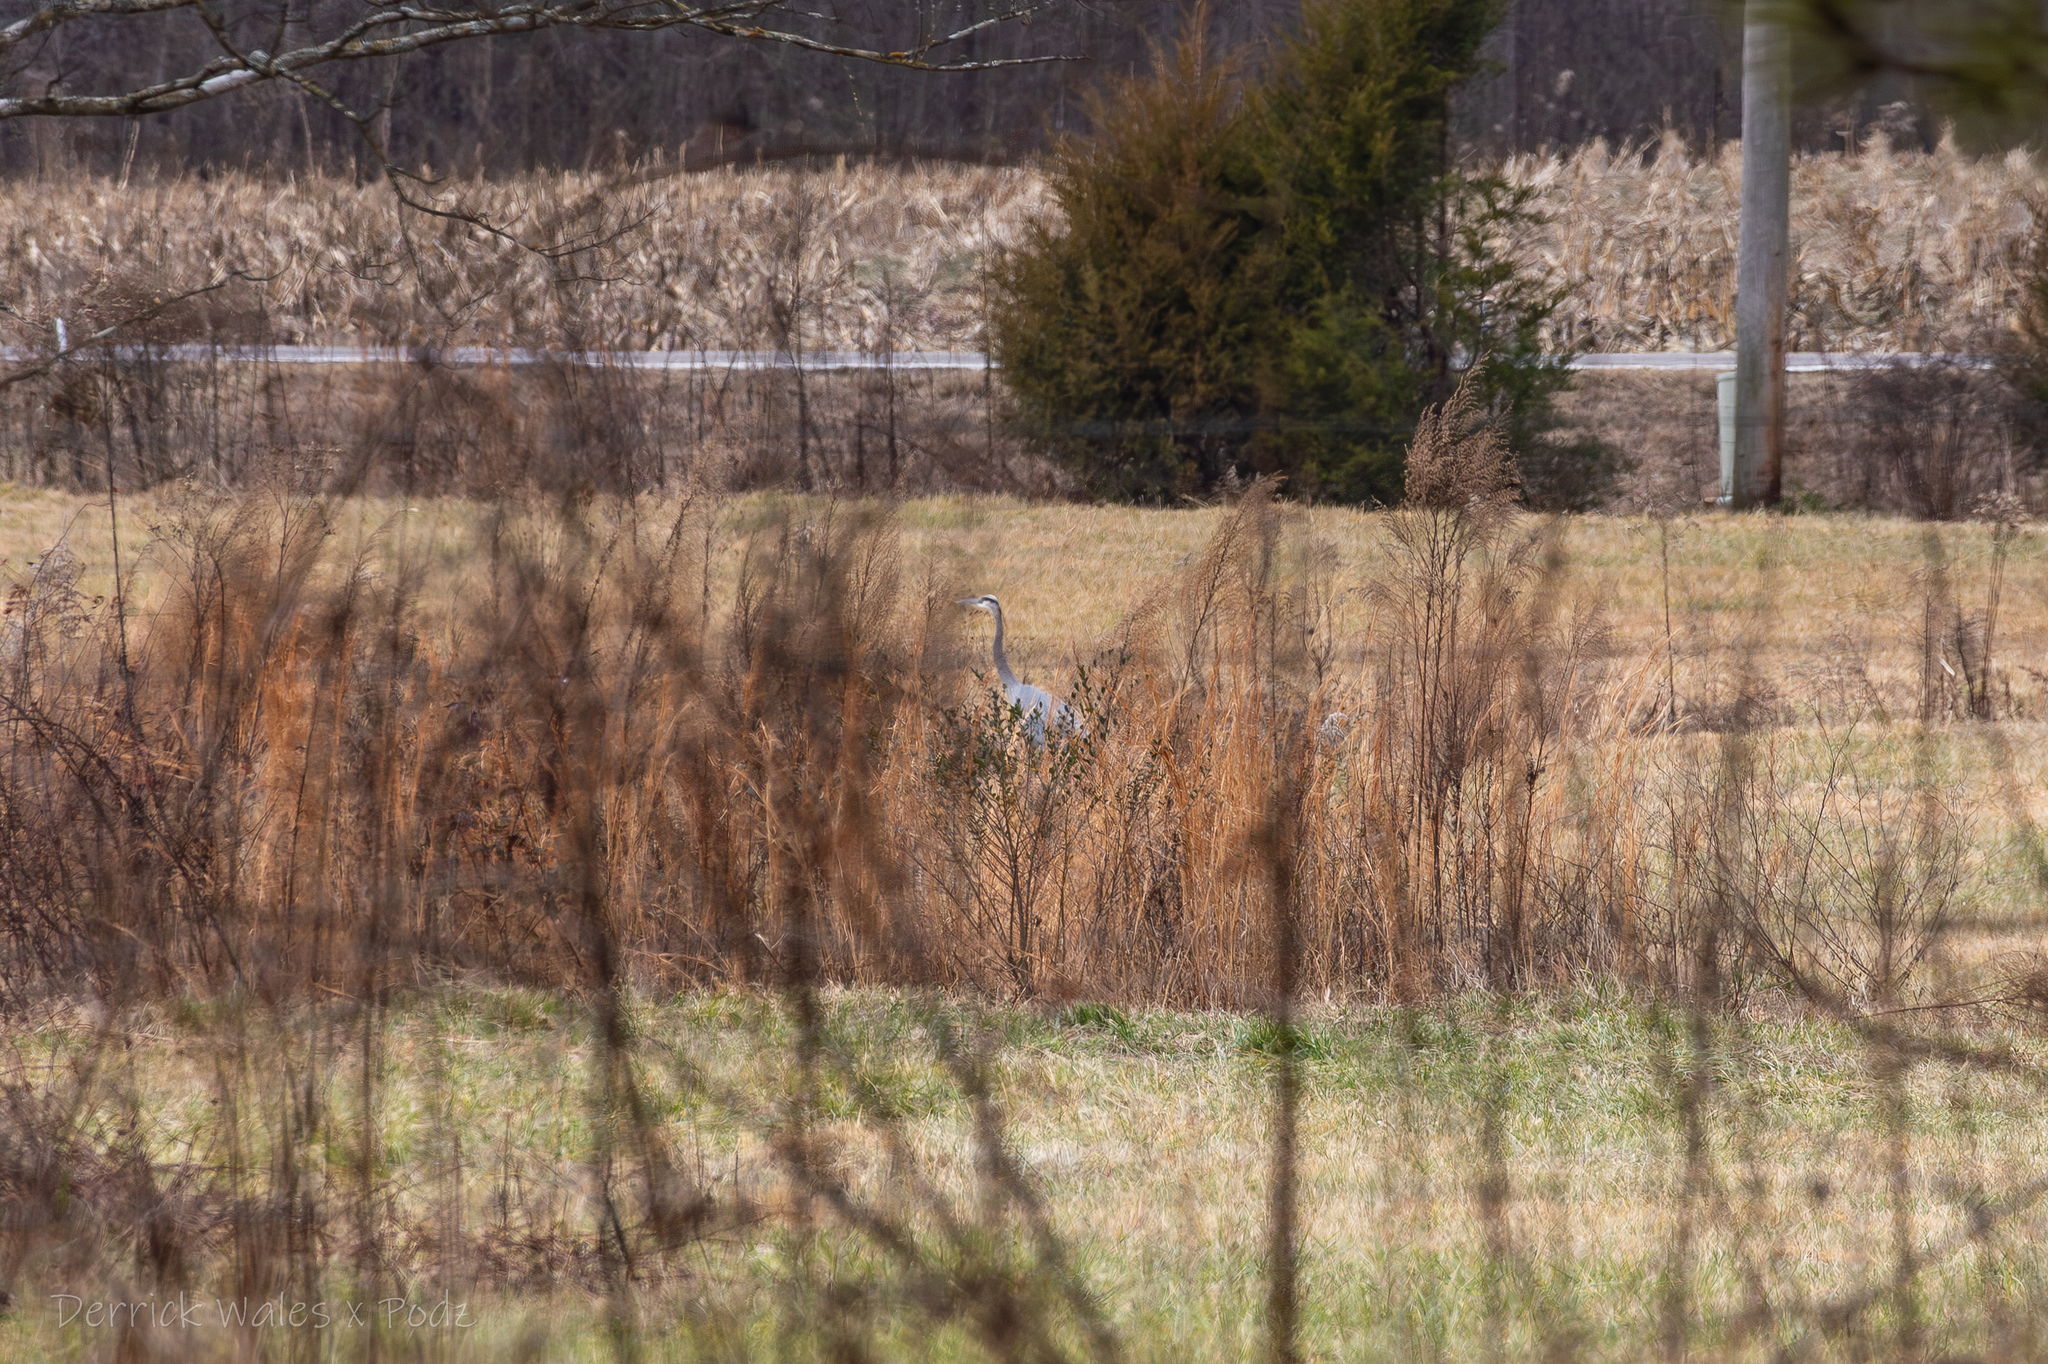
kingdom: Animalia
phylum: Chordata
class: Aves
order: Pelecaniformes
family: Ardeidae
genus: Ardea
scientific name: Ardea herodias
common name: Great blue heron
